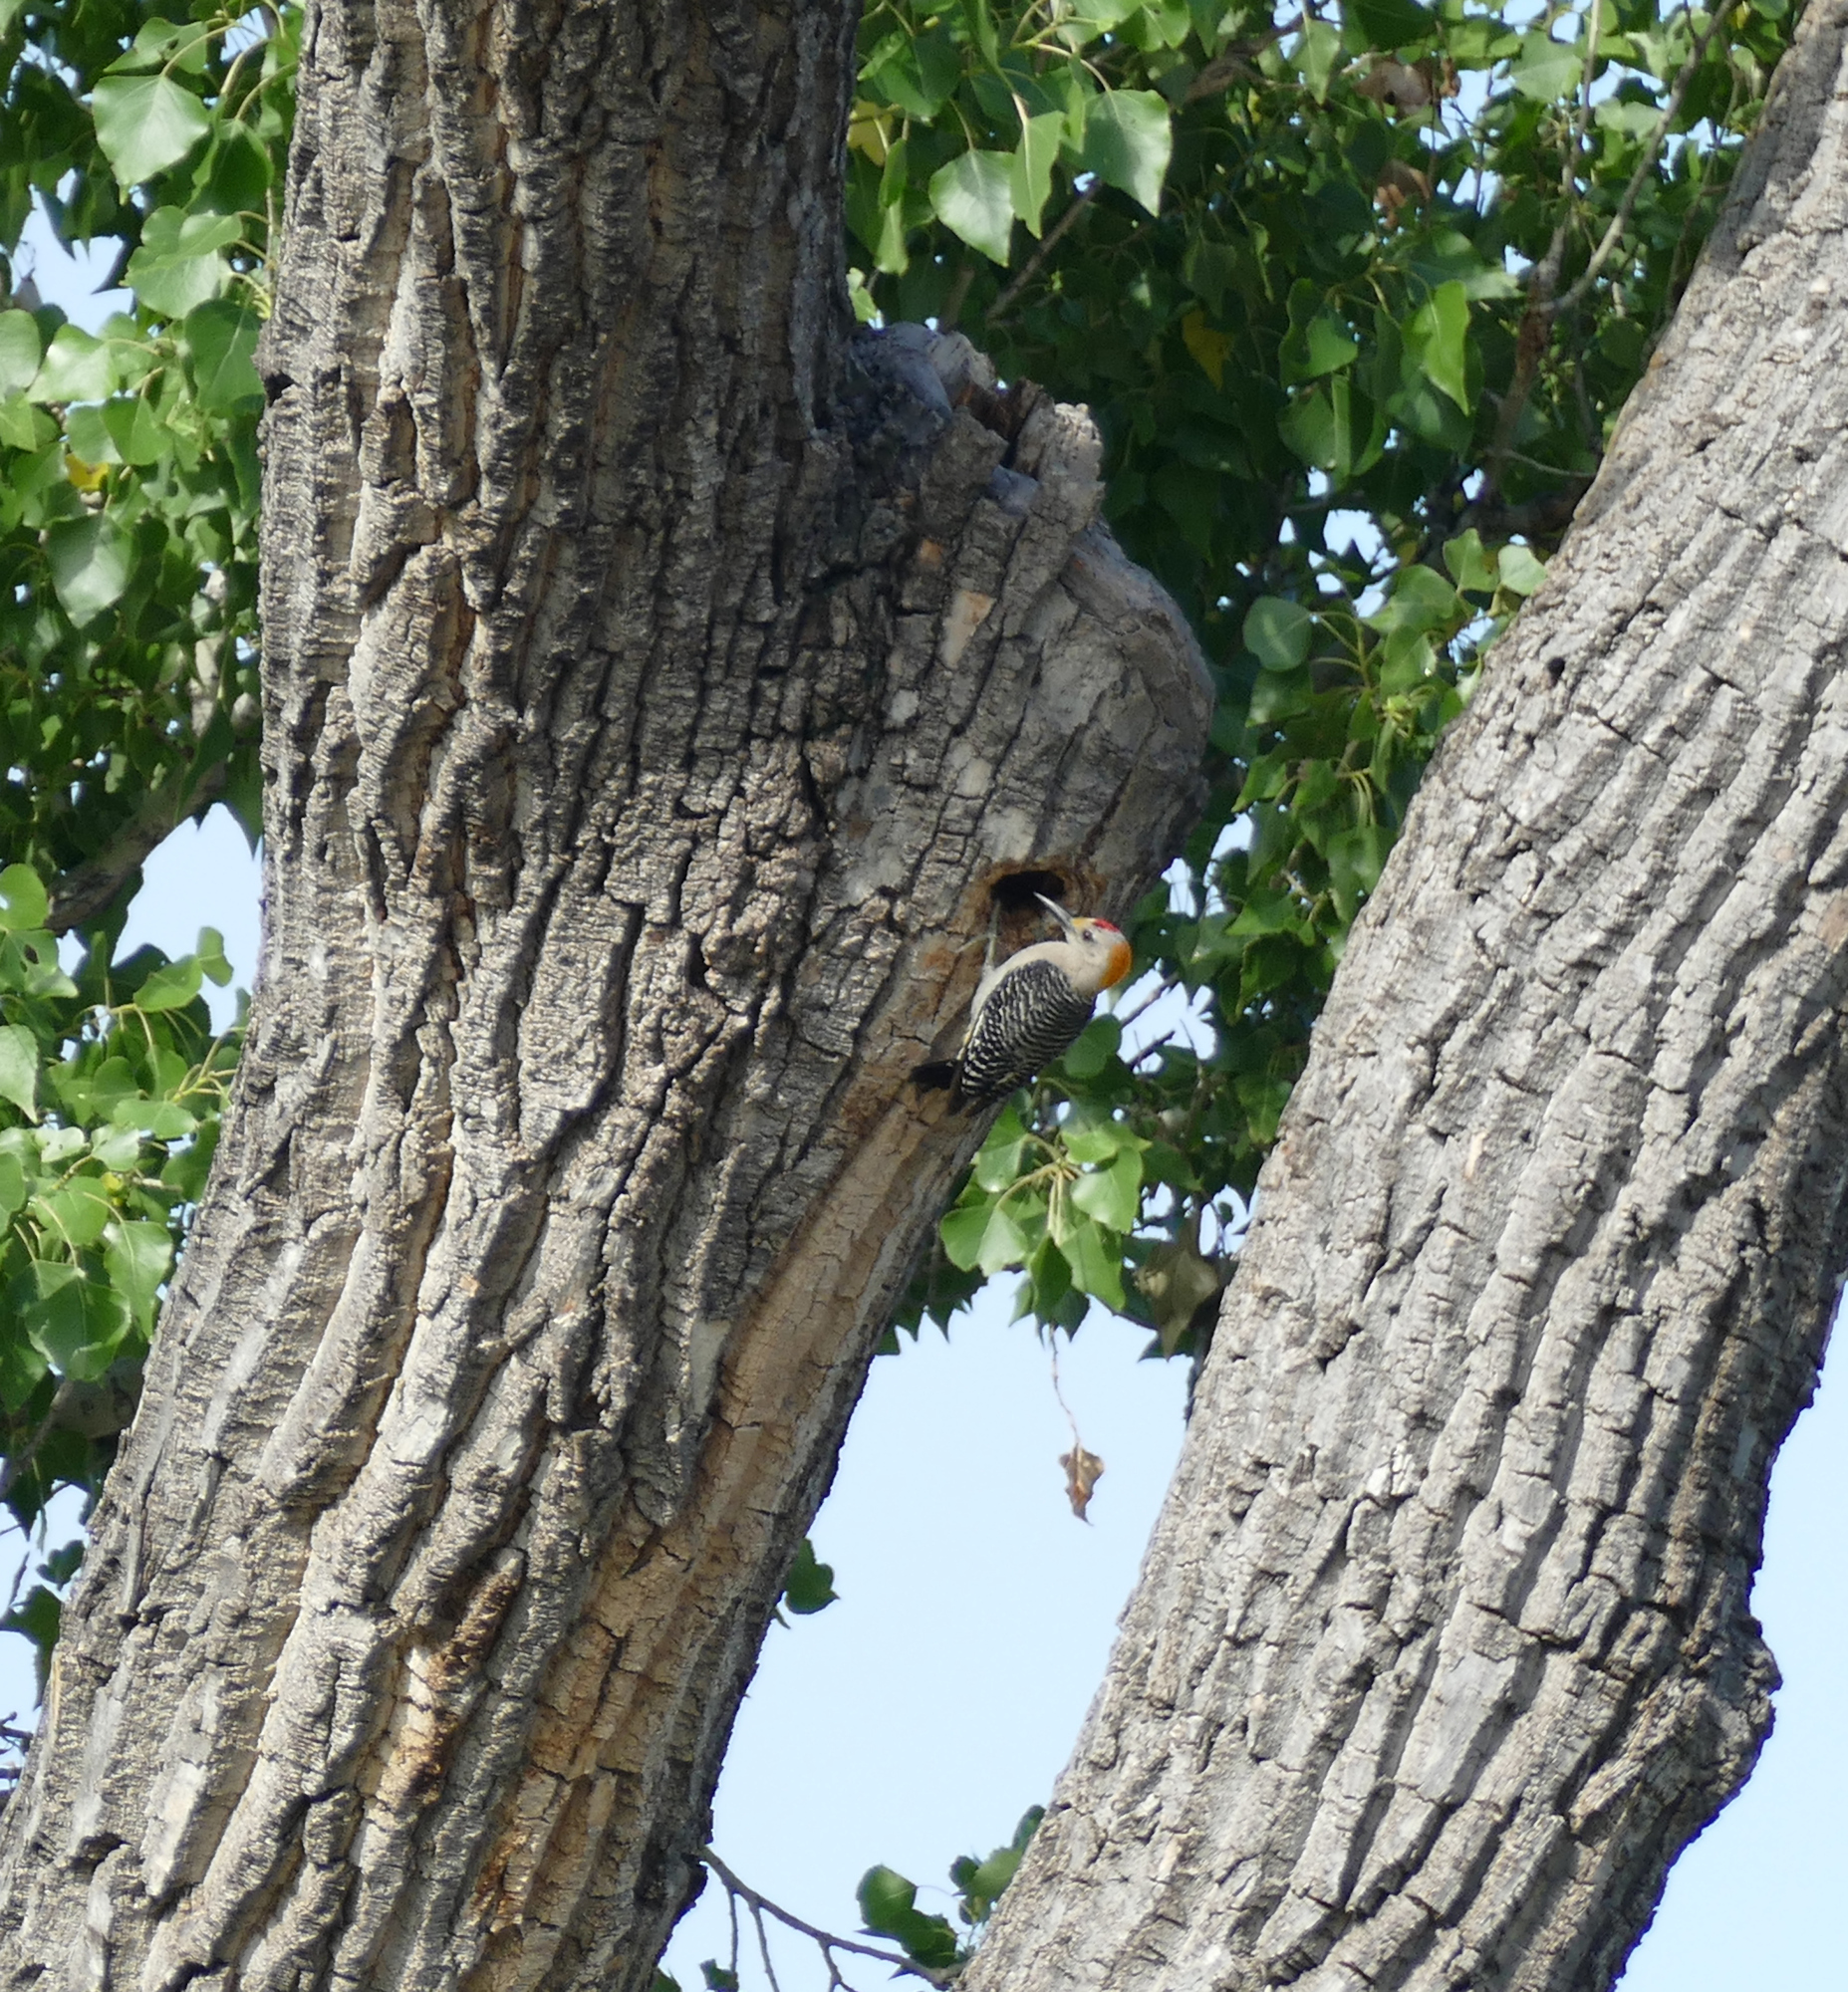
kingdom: Animalia
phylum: Chordata
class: Aves
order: Piciformes
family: Picidae
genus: Melanerpes
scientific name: Melanerpes aurifrons
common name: Golden-fronted woodpecker
